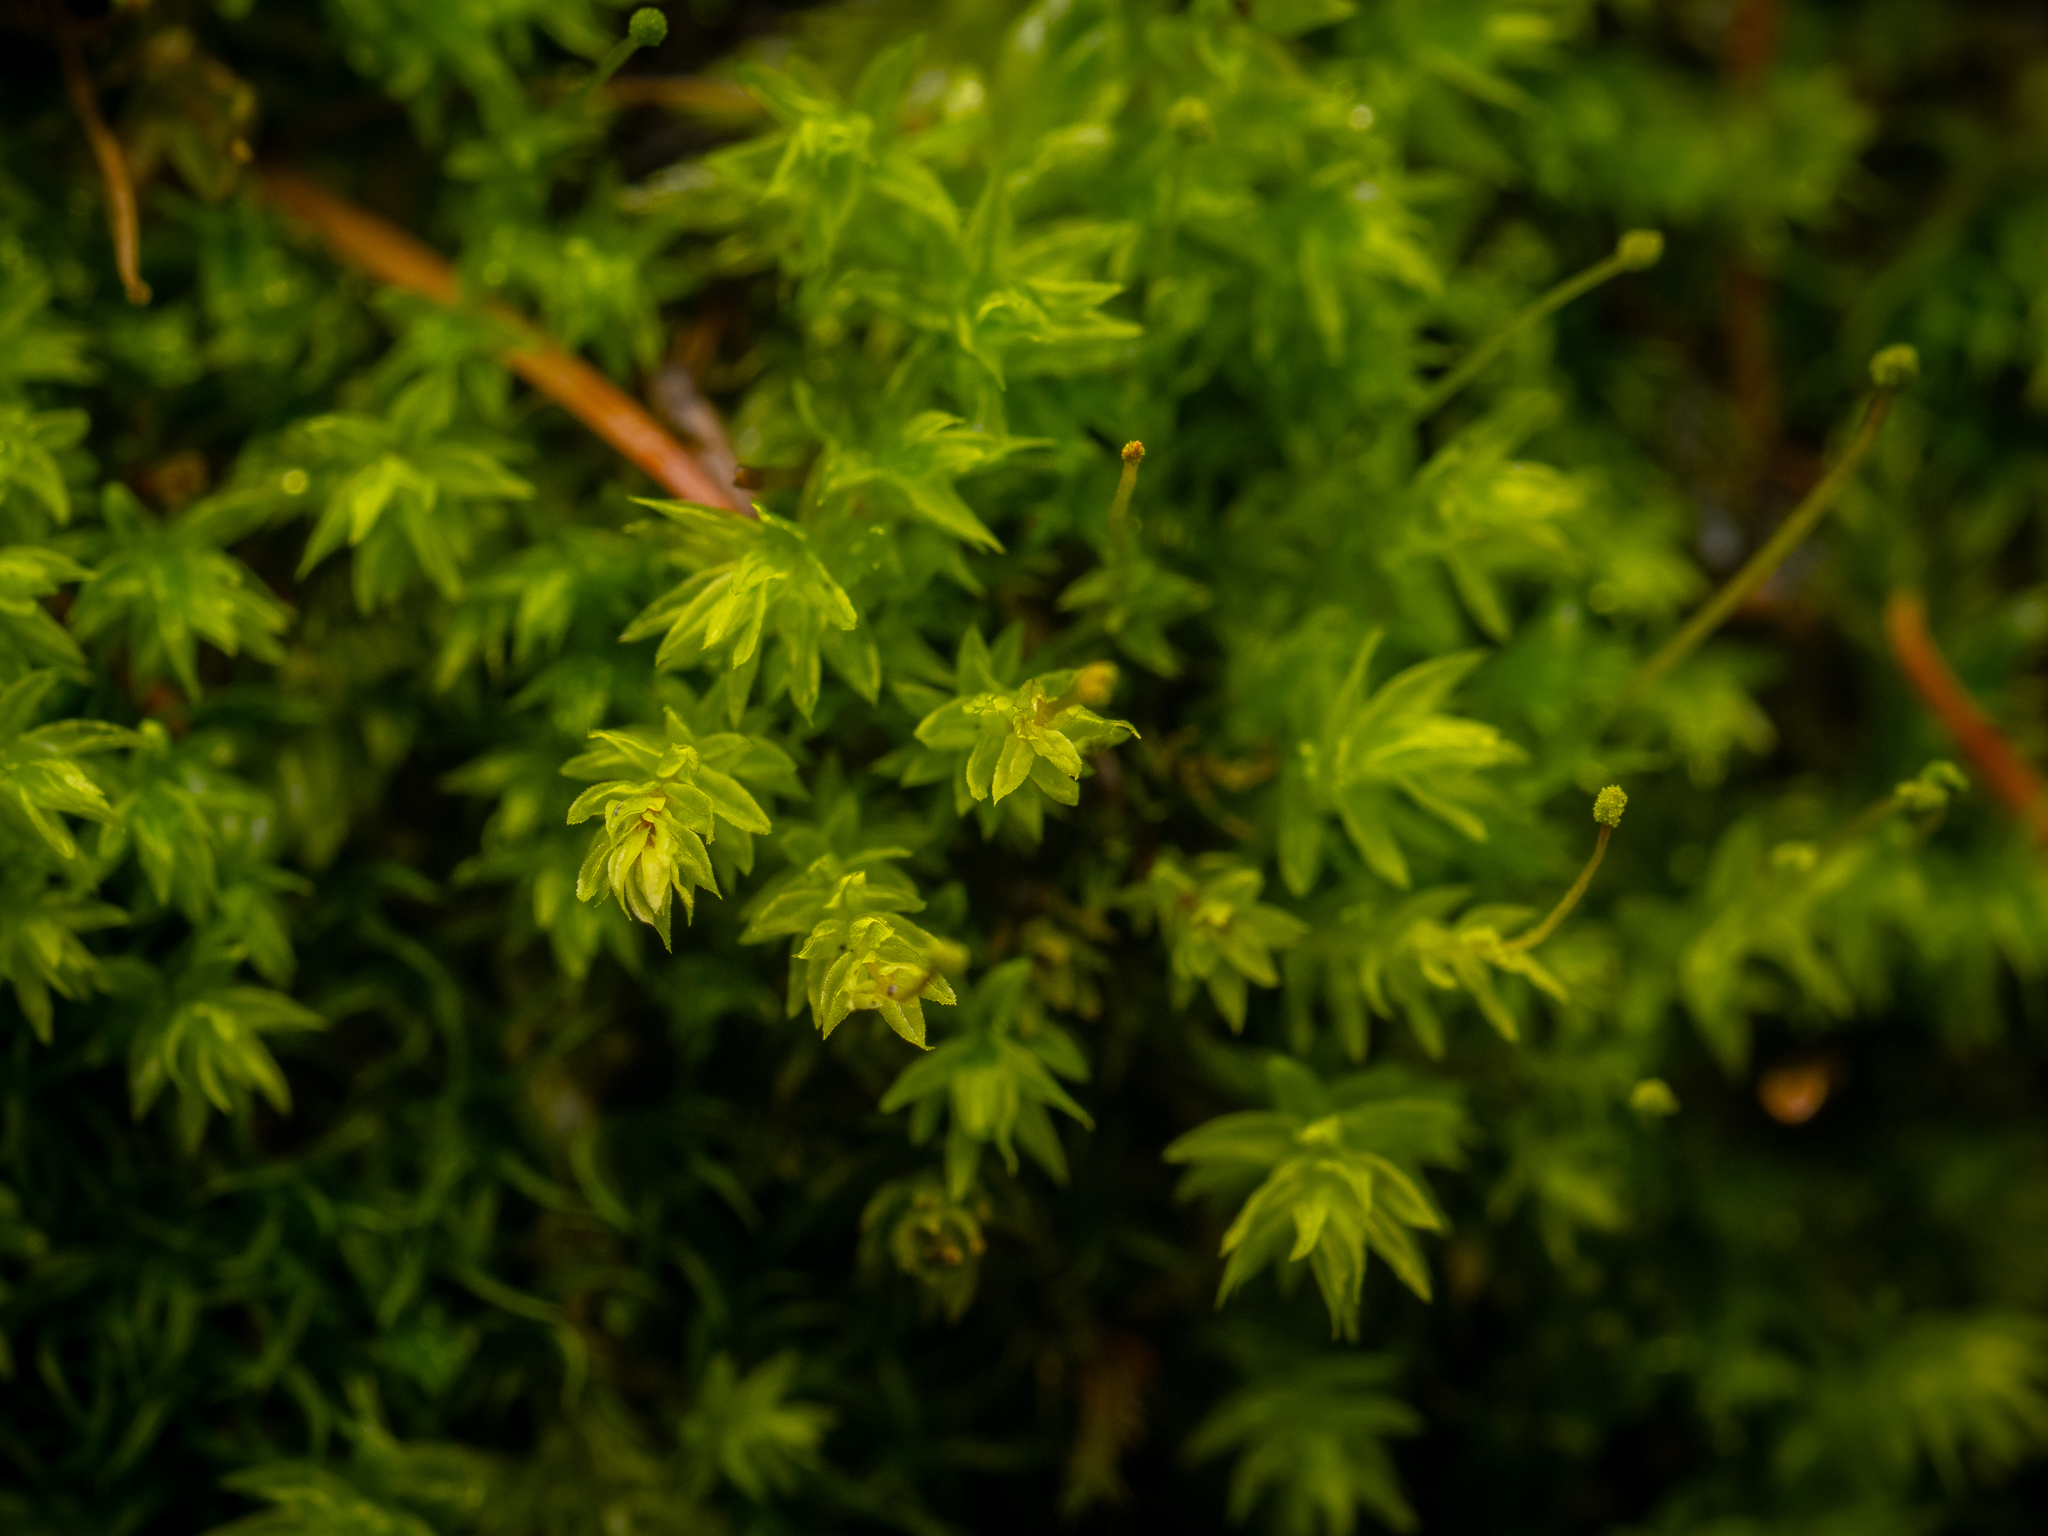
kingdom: Plantae
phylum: Bryophyta
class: Bryopsida
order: Aulacomniales
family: Aulacomniaceae
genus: Aulacomnium
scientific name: Aulacomnium androgynum
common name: Little groove moss
